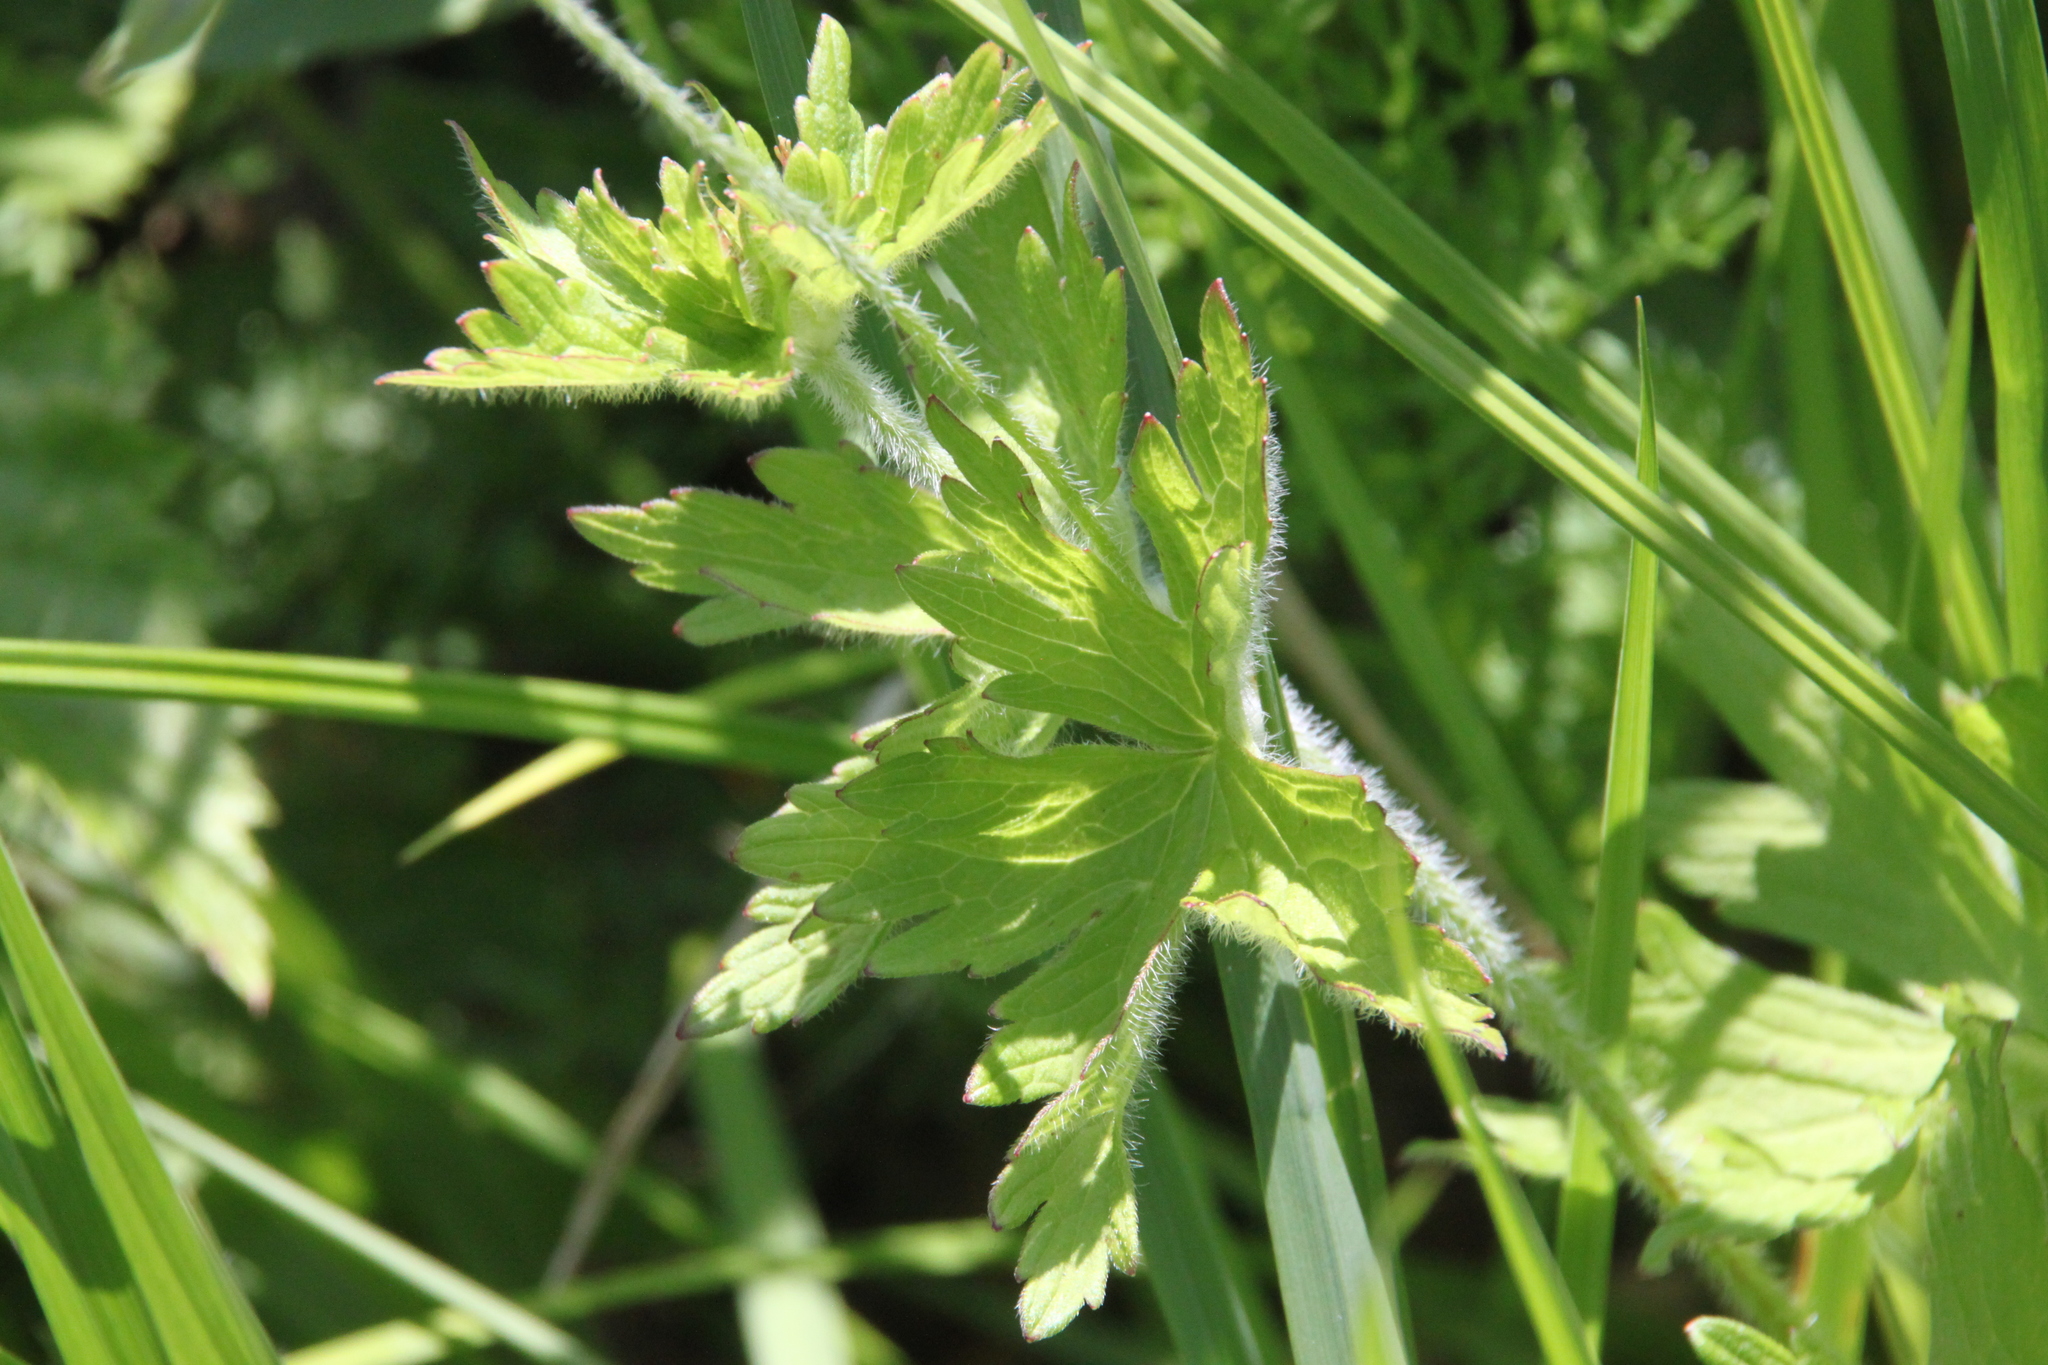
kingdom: Plantae
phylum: Tracheophyta
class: Magnoliopsida
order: Geraniales
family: Geraniaceae
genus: Geranium
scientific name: Geranium palustre
